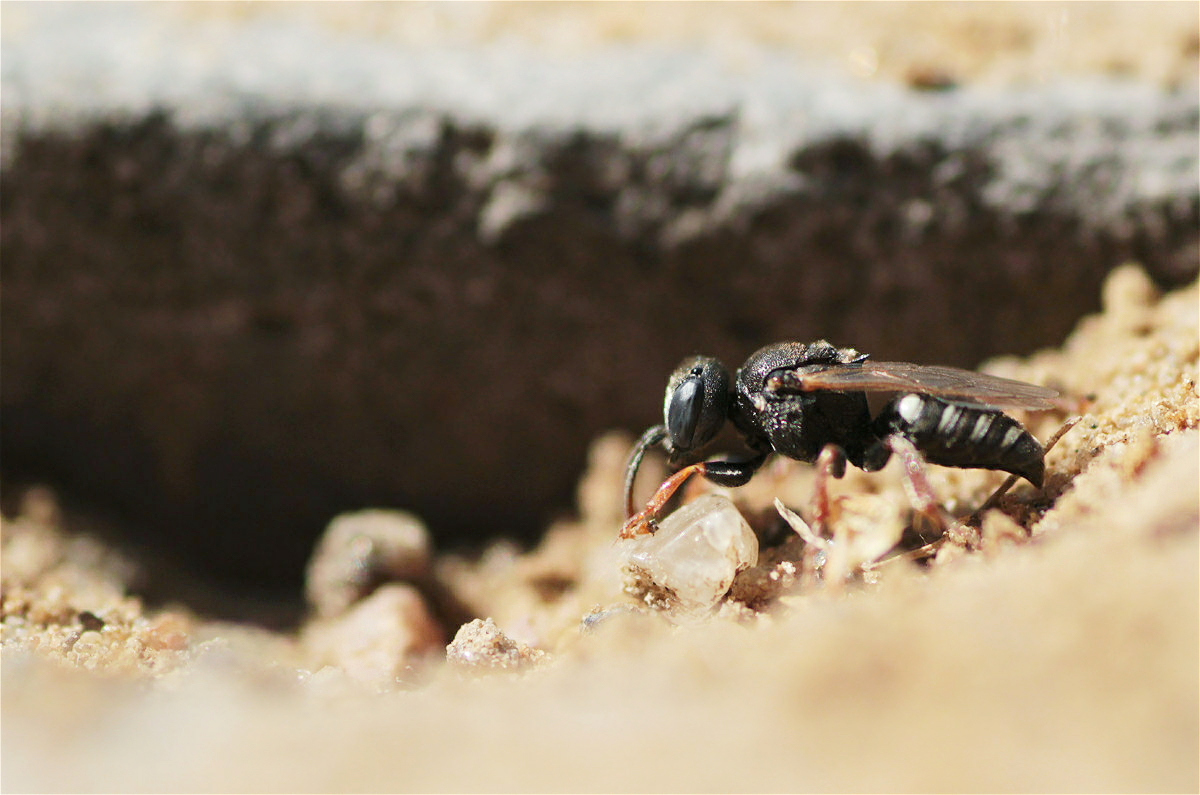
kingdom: Animalia
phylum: Arthropoda
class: Insecta
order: Hymenoptera
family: Crabronidae
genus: Oxybelus
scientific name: Oxybelus uniglumis
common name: Common spiny digger wasp
